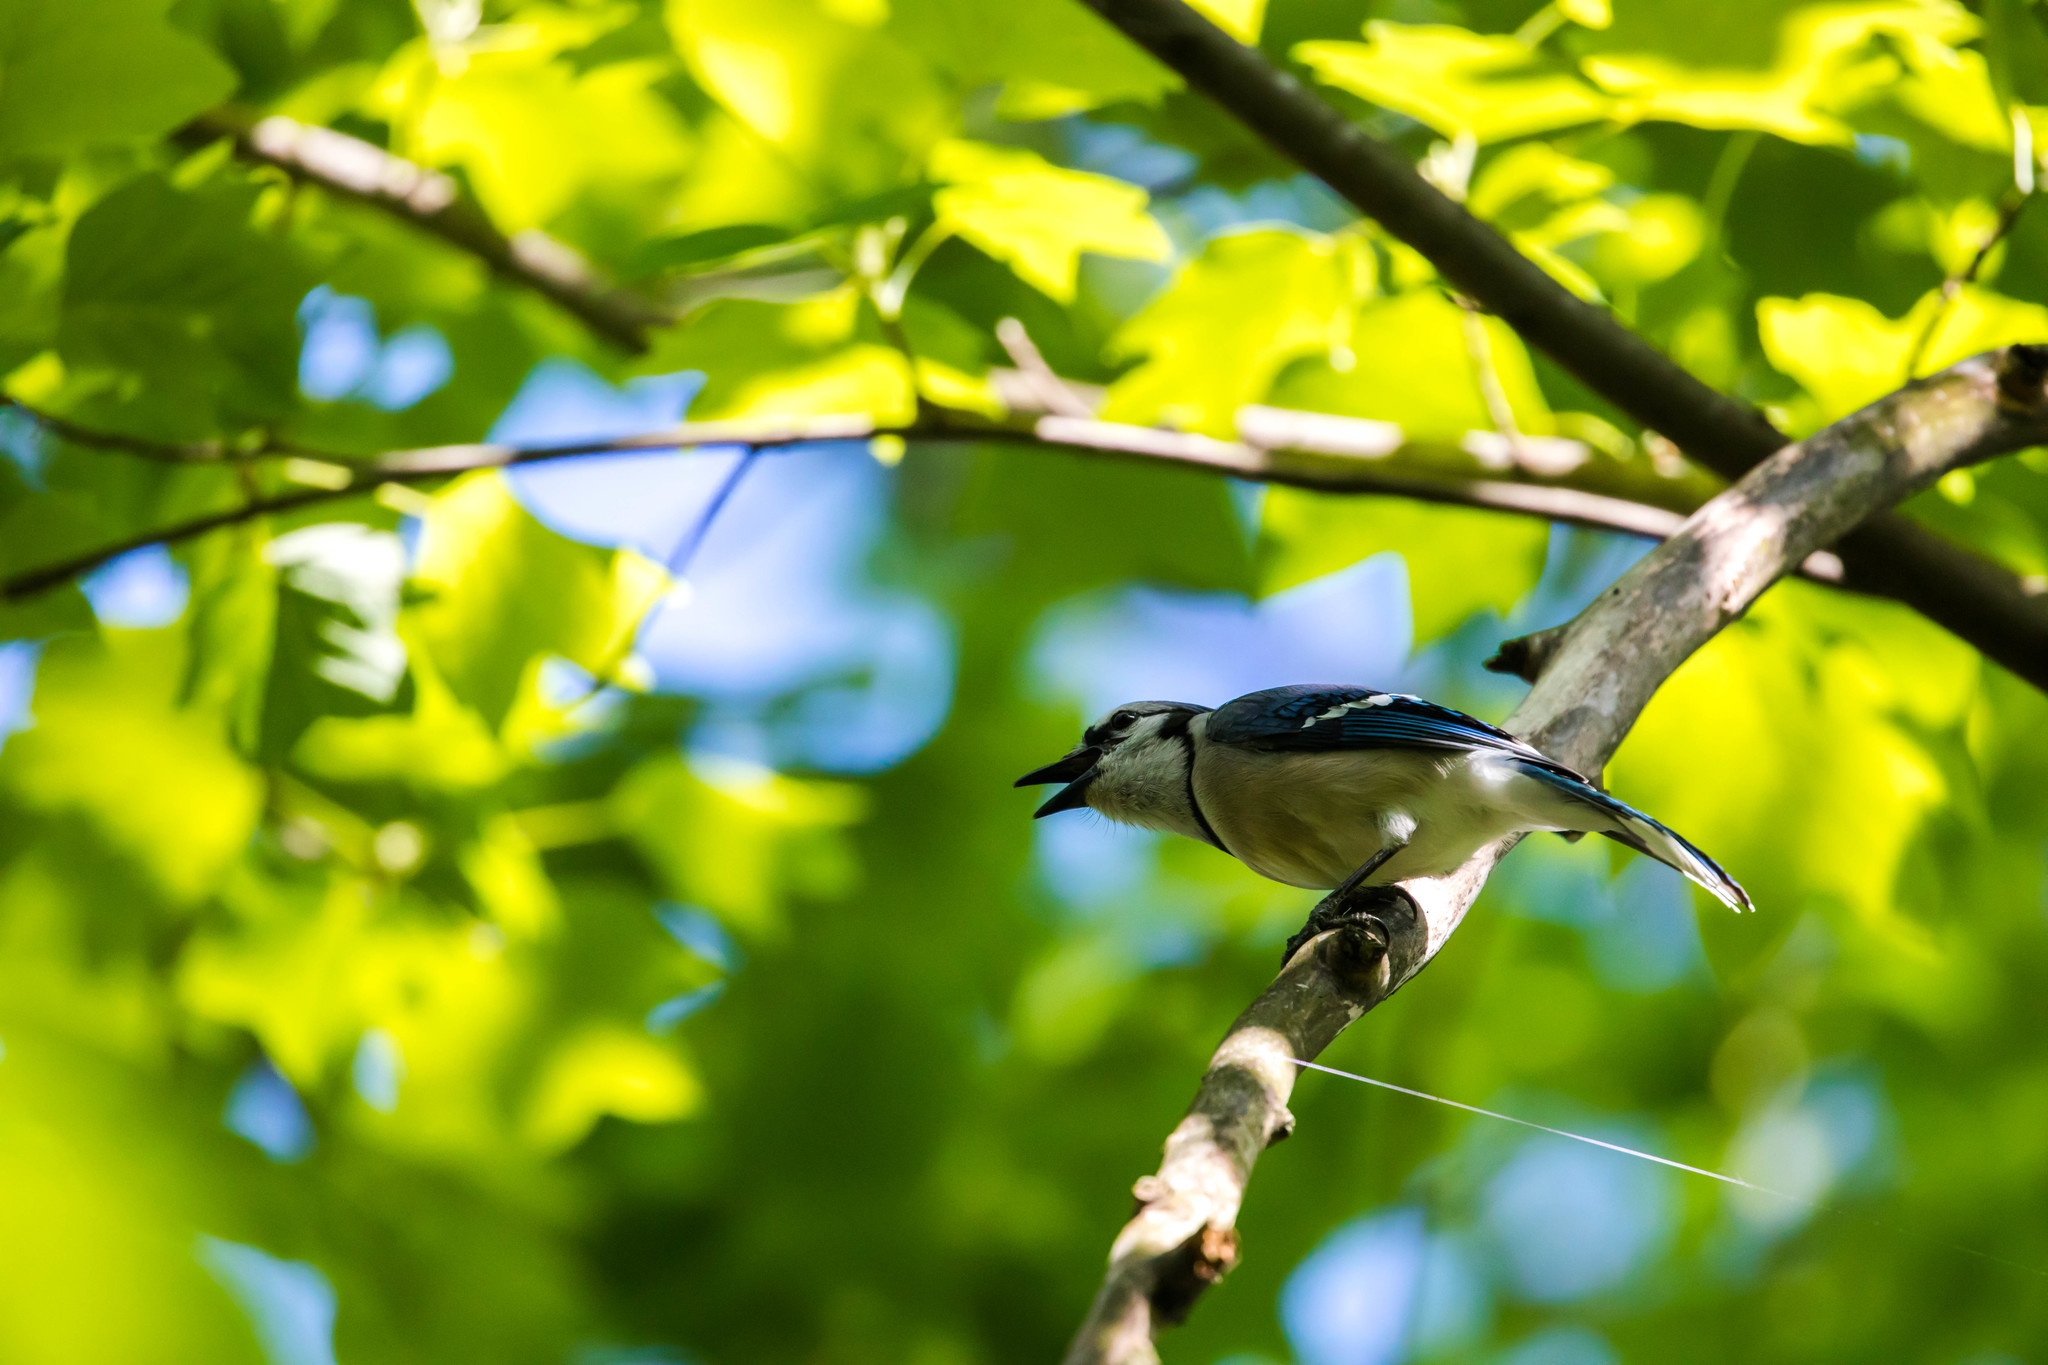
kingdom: Animalia
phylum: Chordata
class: Aves
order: Passeriformes
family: Corvidae
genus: Cyanocitta
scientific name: Cyanocitta cristata
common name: Blue jay
